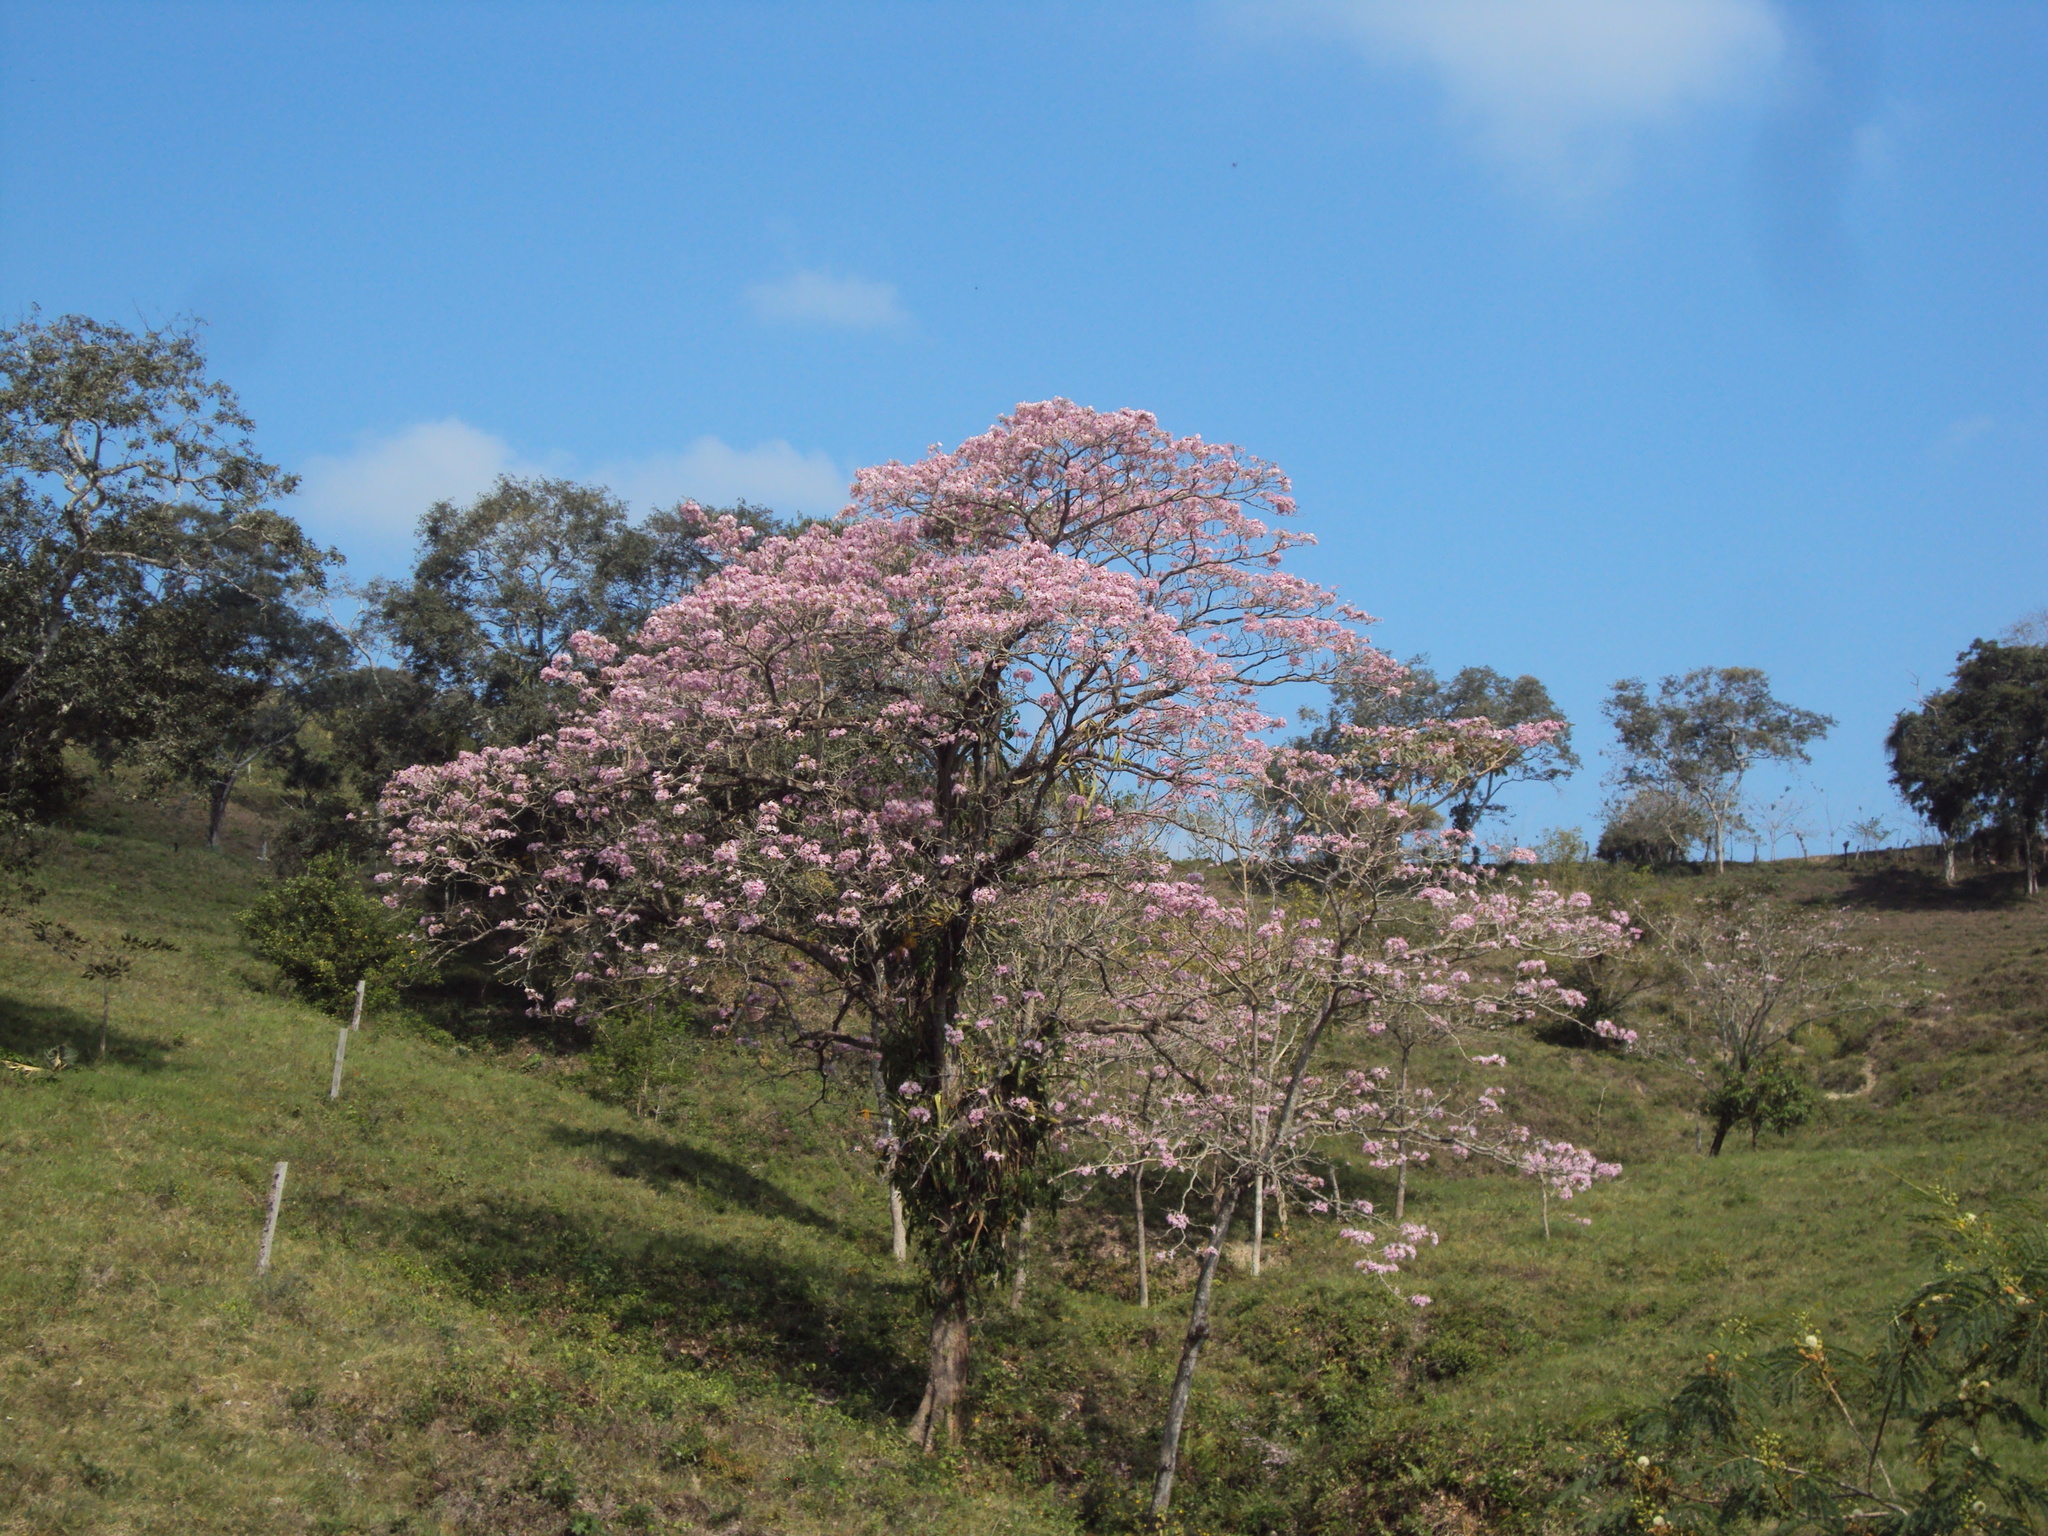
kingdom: Plantae
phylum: Tracheophyta
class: Magnoliopsida
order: Lamiales
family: Bignoniaceae
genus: Tabebuia
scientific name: Tabebuia rosea
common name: Pink poui
